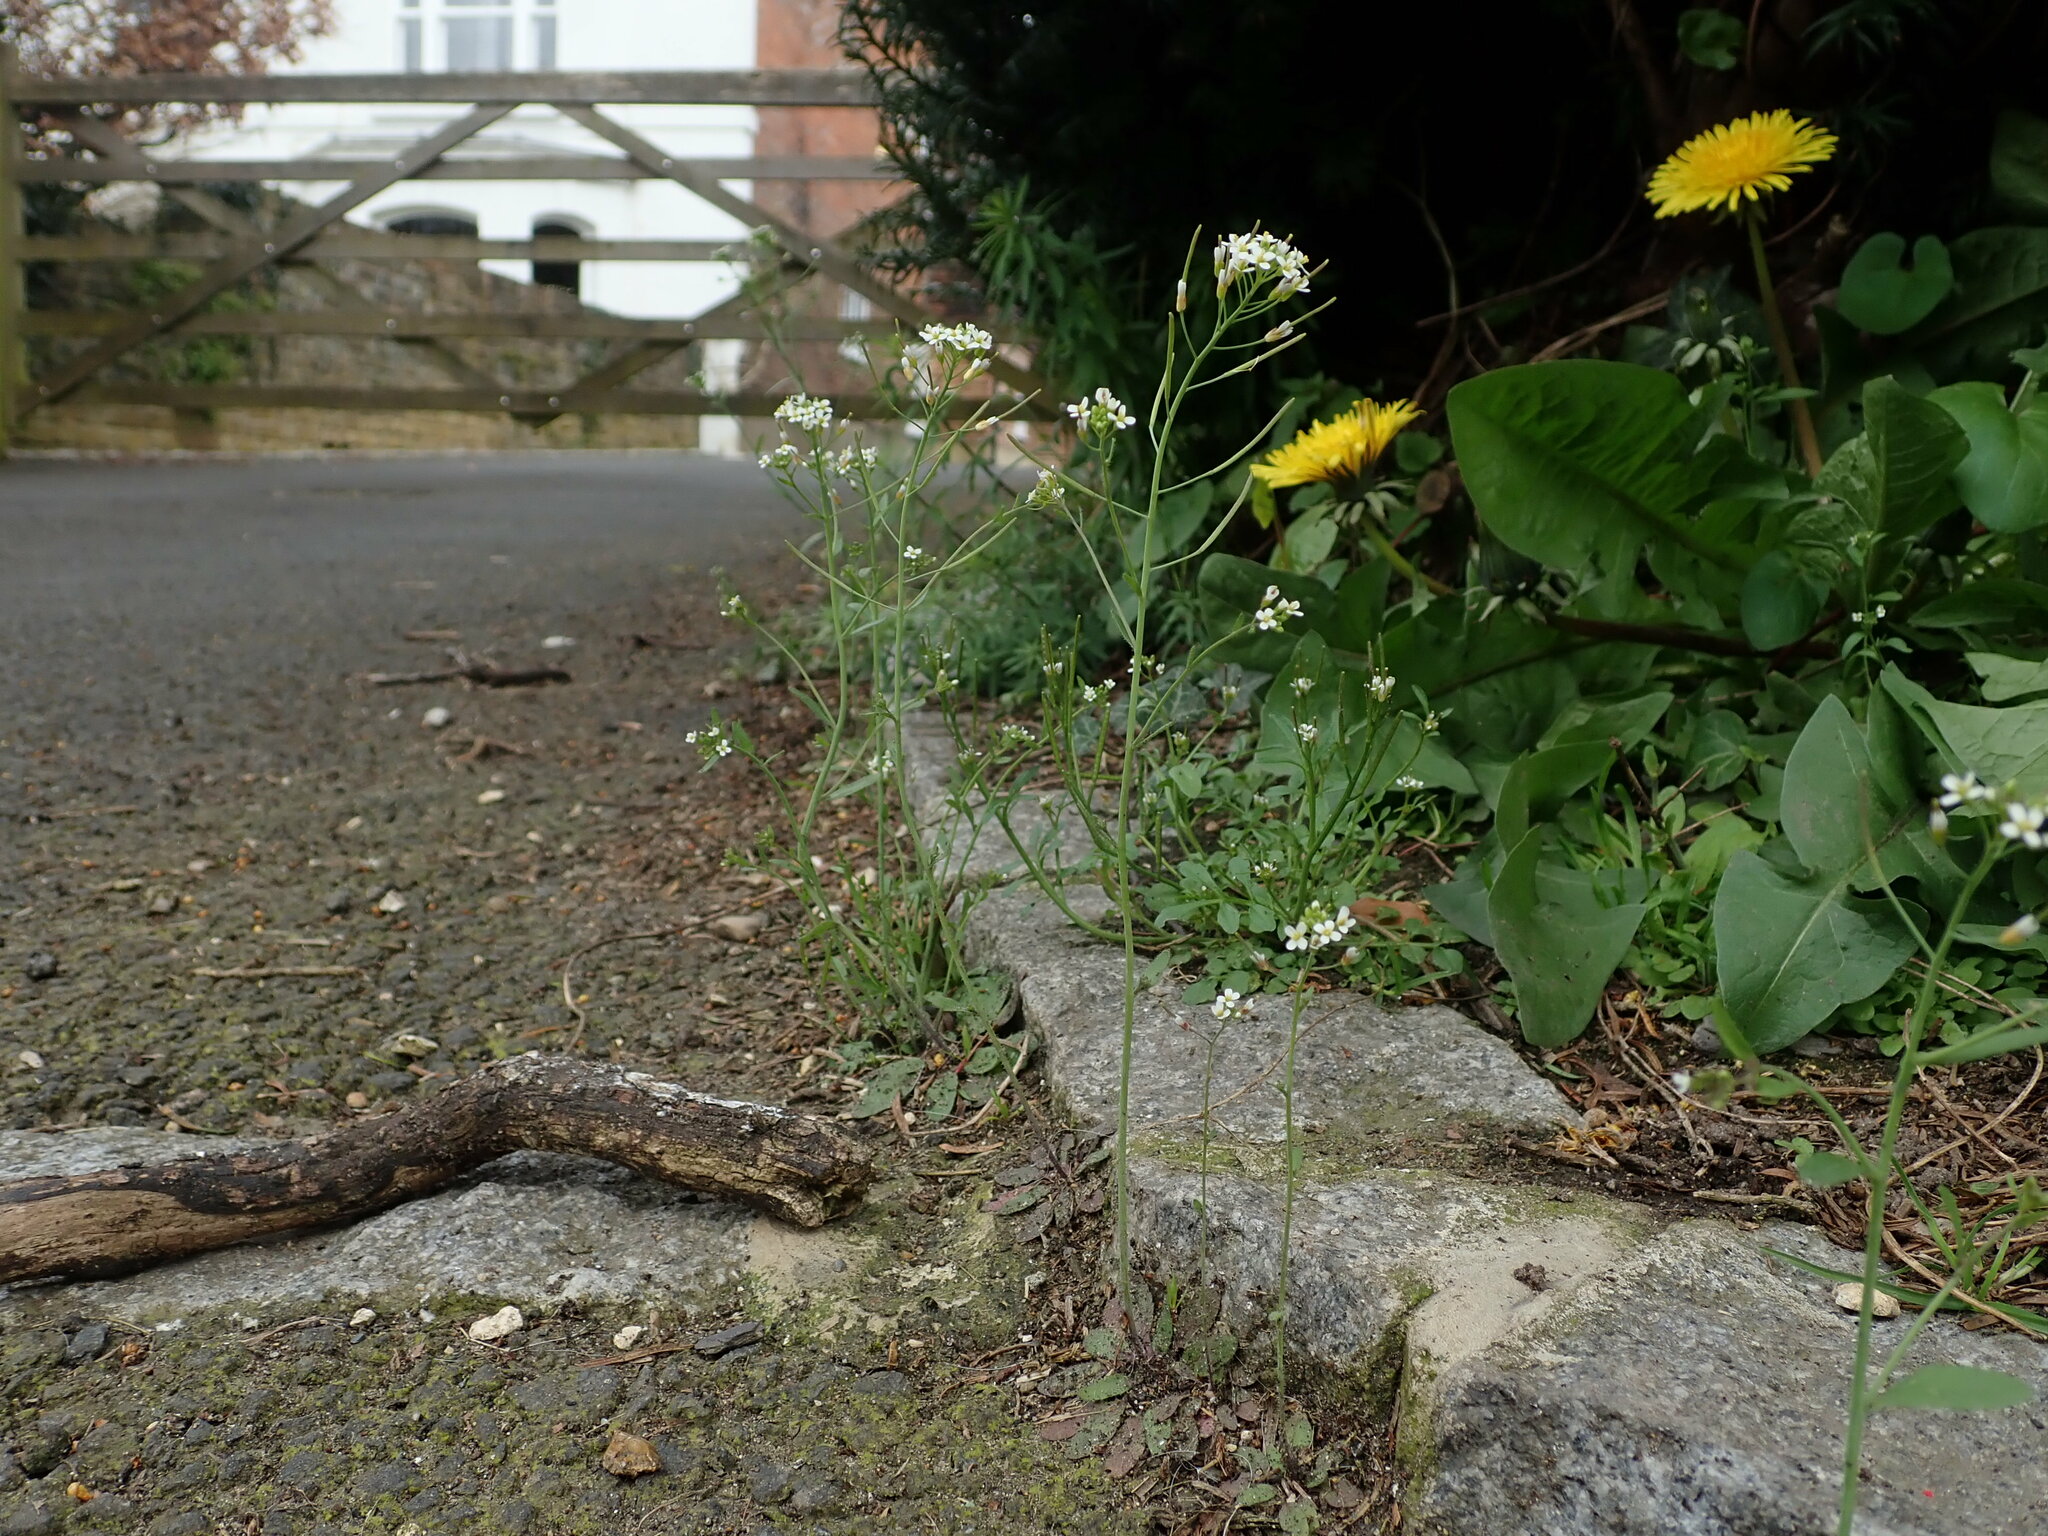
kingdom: Plantae
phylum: Tracheophyta
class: Magnoliopsida
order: Brassicales
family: Brassicaceae
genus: Arabidopsis
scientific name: Arabidopsis thaliana
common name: Thale cress
